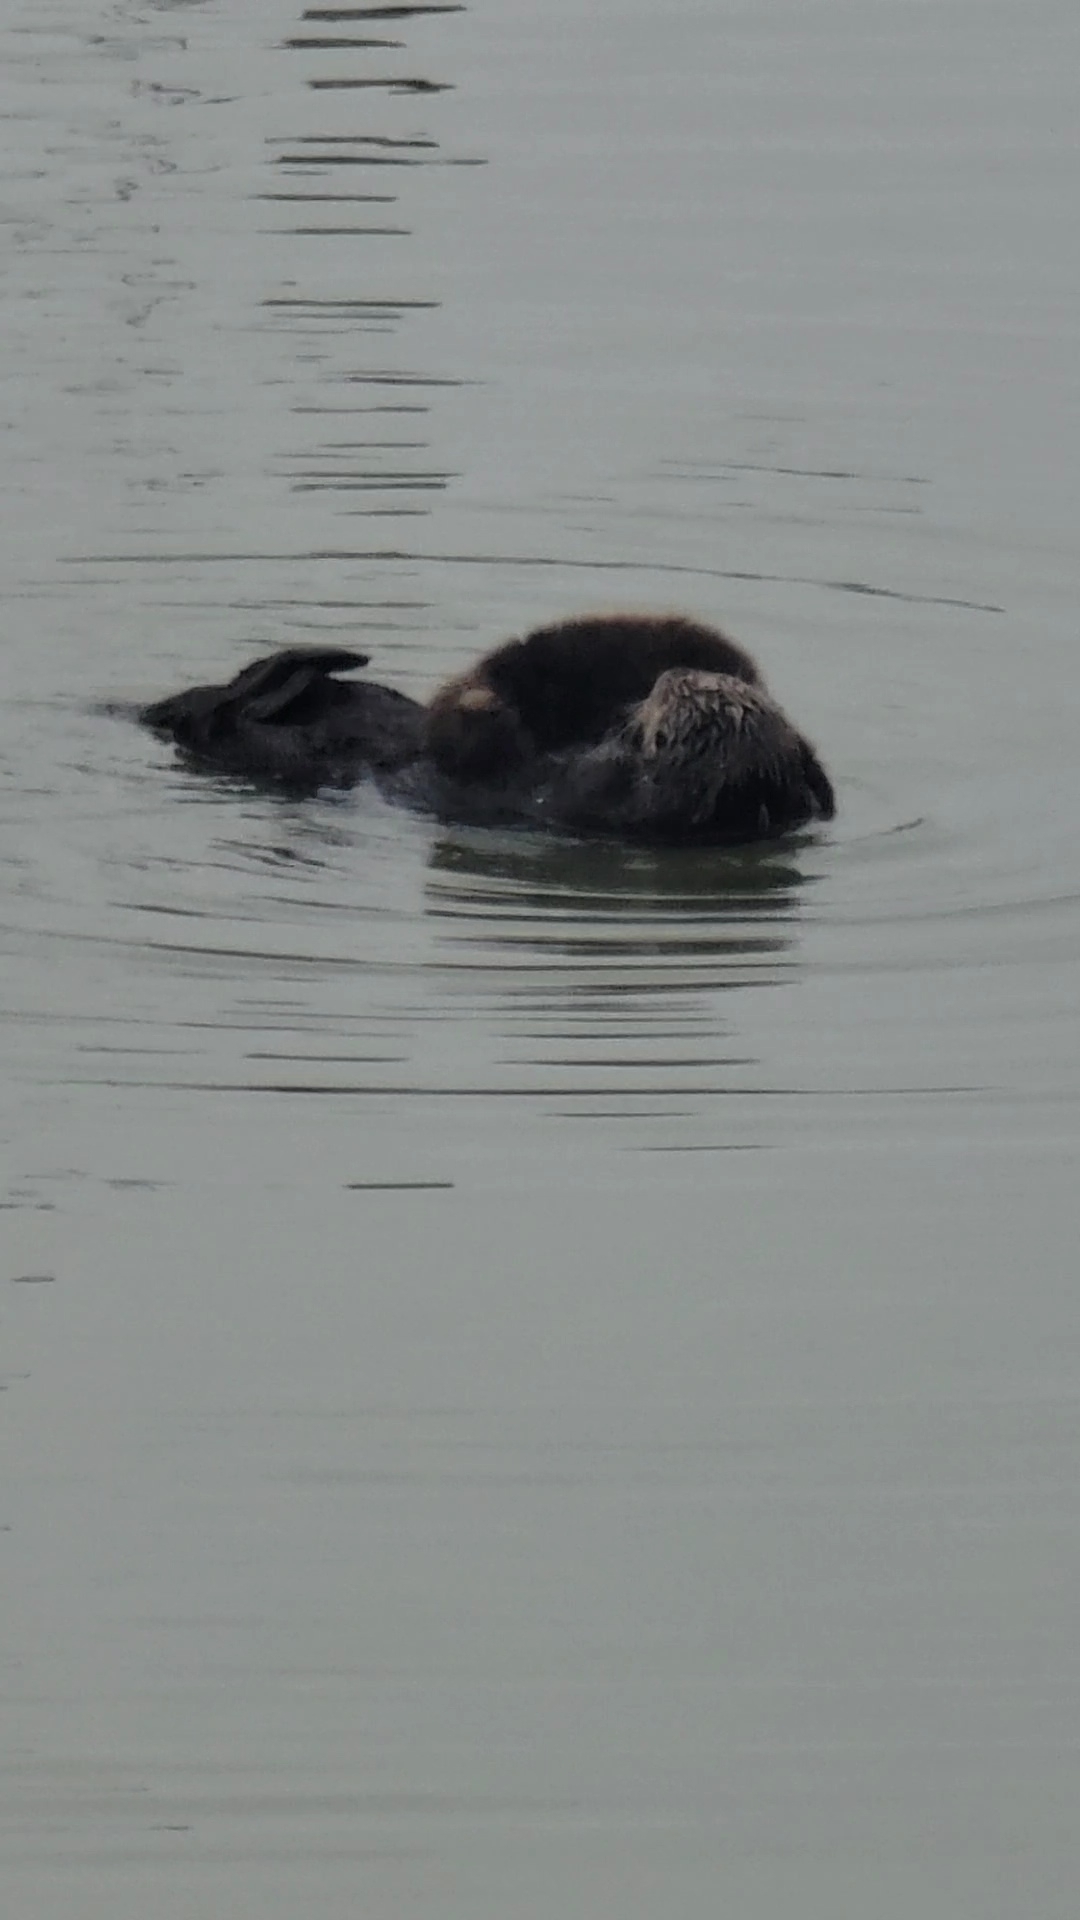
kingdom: Animalia
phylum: Chordata
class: Mammalia
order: Carnivora
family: Mustelidae
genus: Enhydra
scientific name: Enhydra lutris
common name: Sea otter
